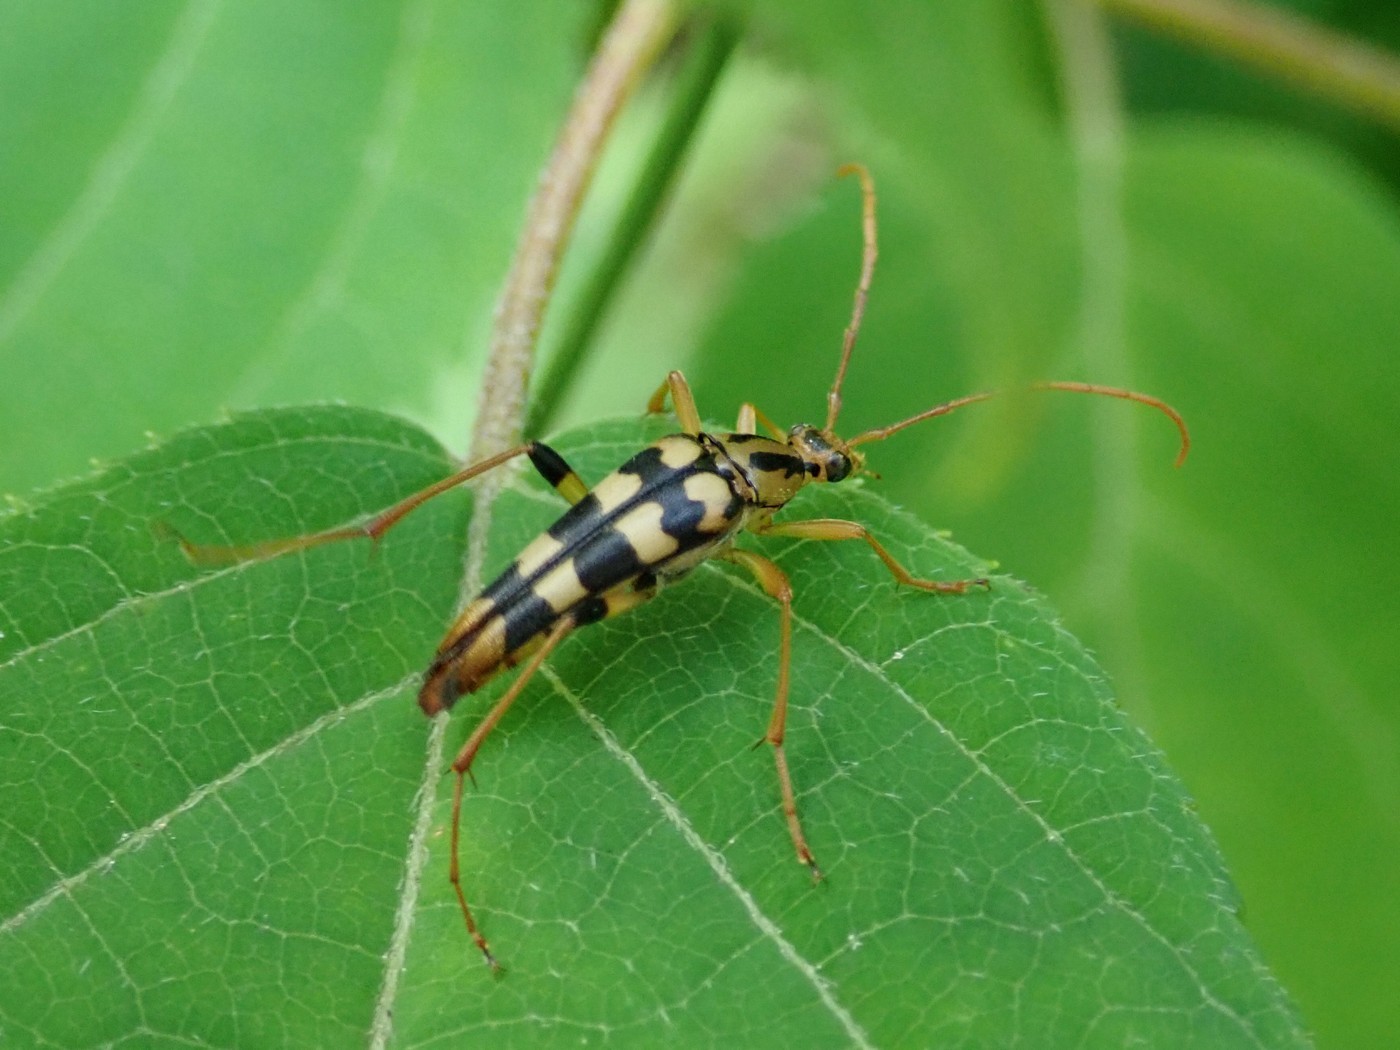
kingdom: Animalia
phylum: Arthropoda
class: Insecta
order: Coleoptera
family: Cerambycidae
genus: Strangalia
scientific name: Strangalia luteicornis
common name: Yellow-horned flower longhorn beetle
